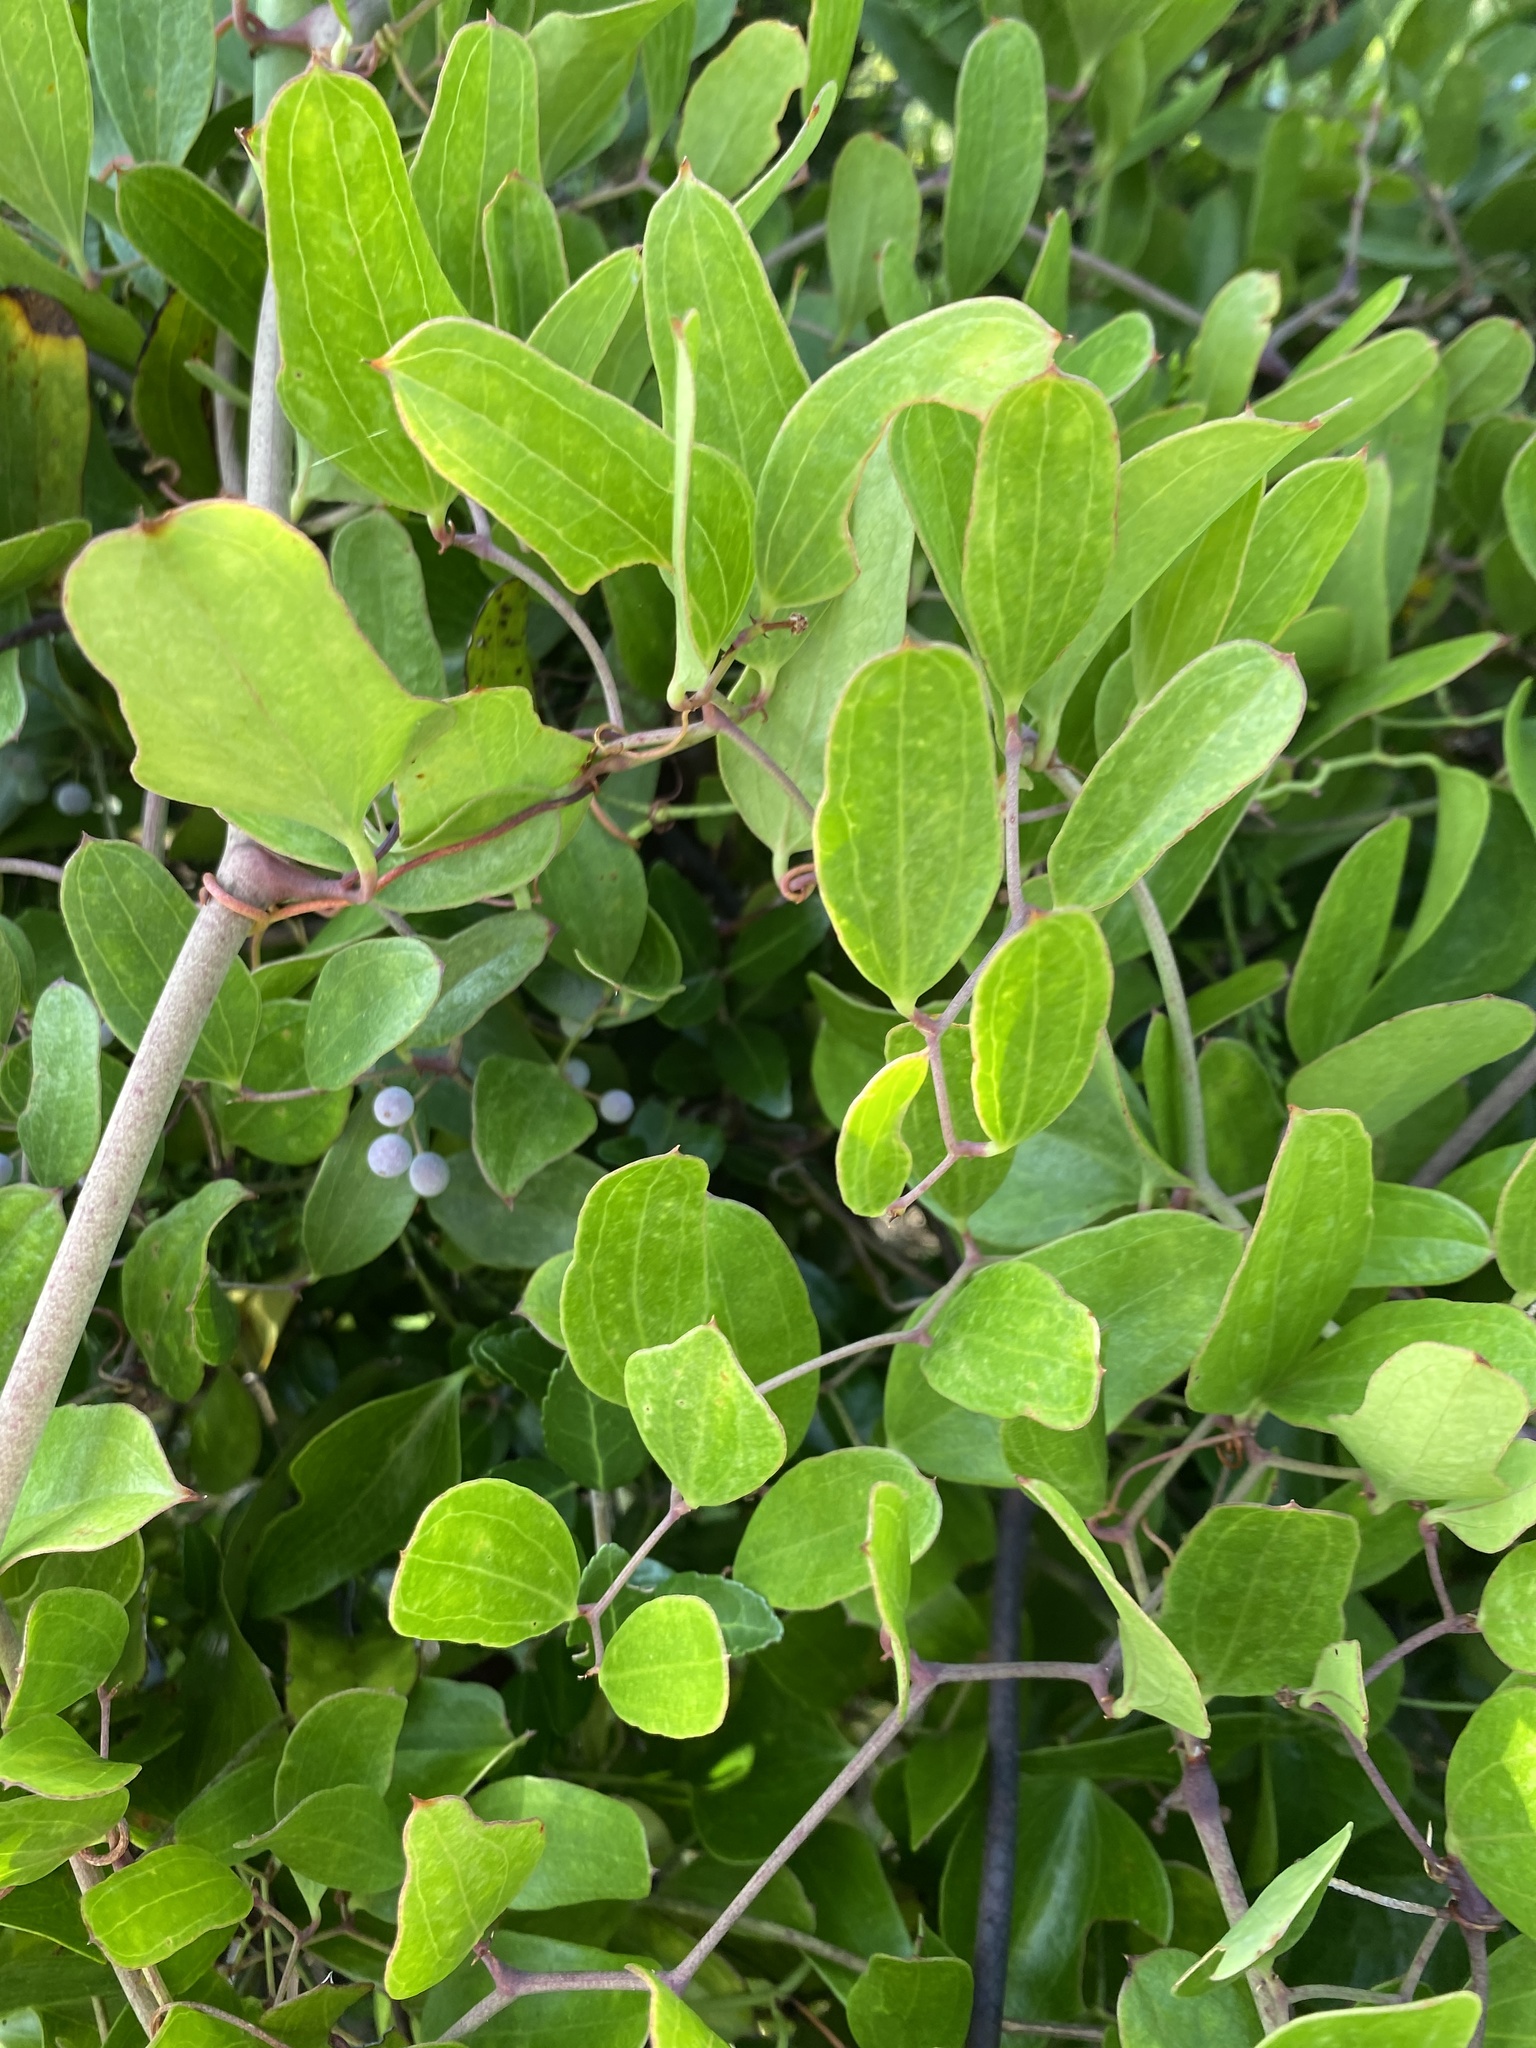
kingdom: Plantae
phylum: Tracheophyta
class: Liliopsida
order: Liliales
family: Smilacaceae
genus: Smilax
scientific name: Smilax auriculata
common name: Wild bamboo
